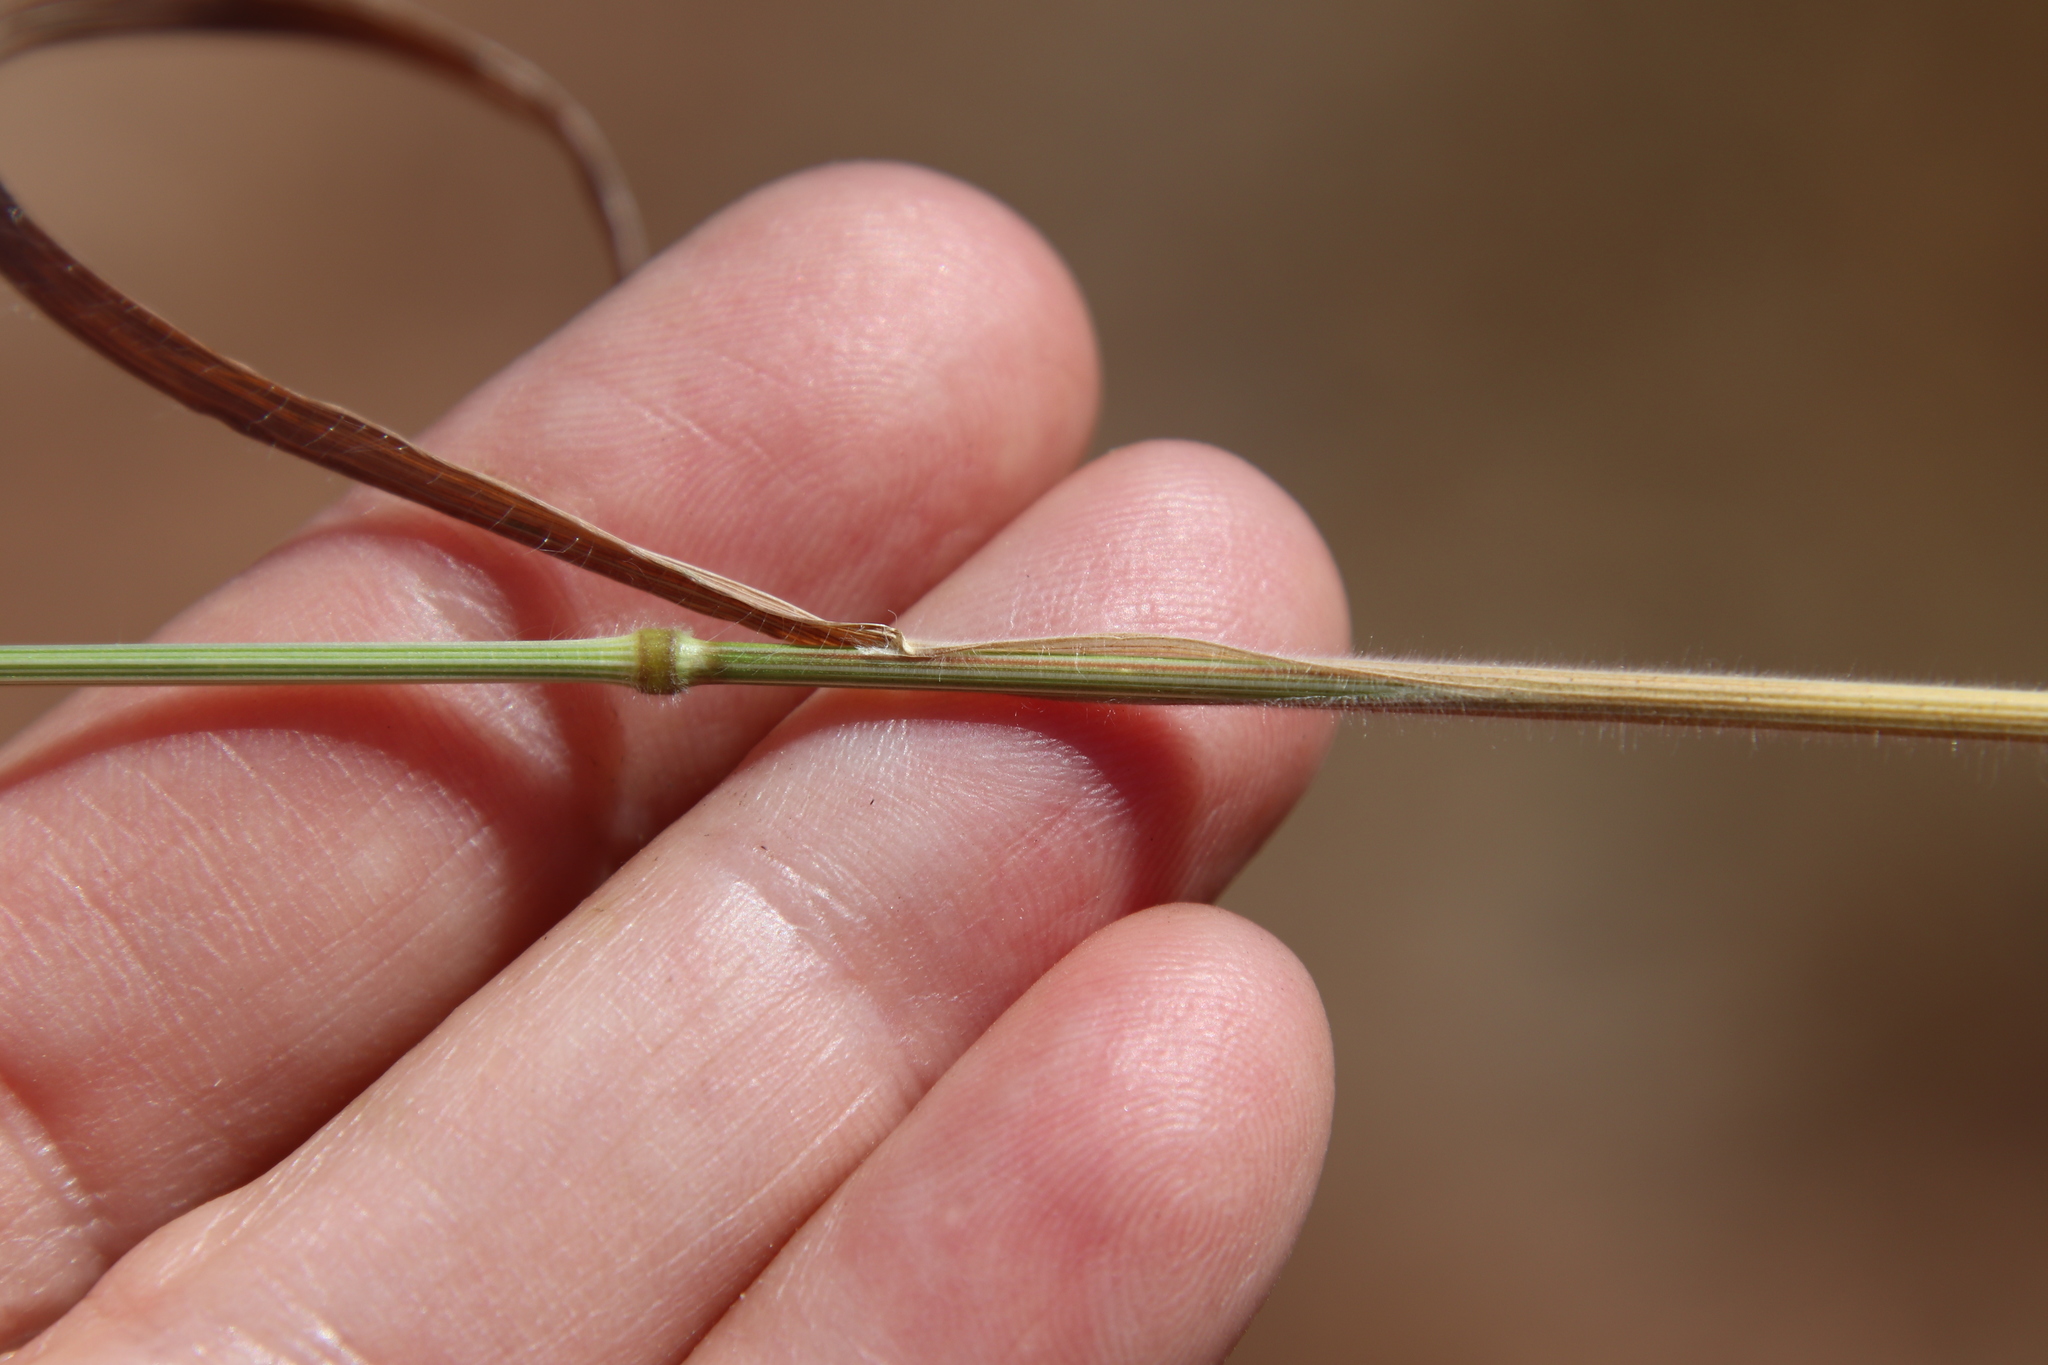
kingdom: Plantae
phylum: Tracheophyta
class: Liliopsida
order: Poales
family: Poaceae
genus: Bromus
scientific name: Bromus hordeaceus
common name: Soft brome
